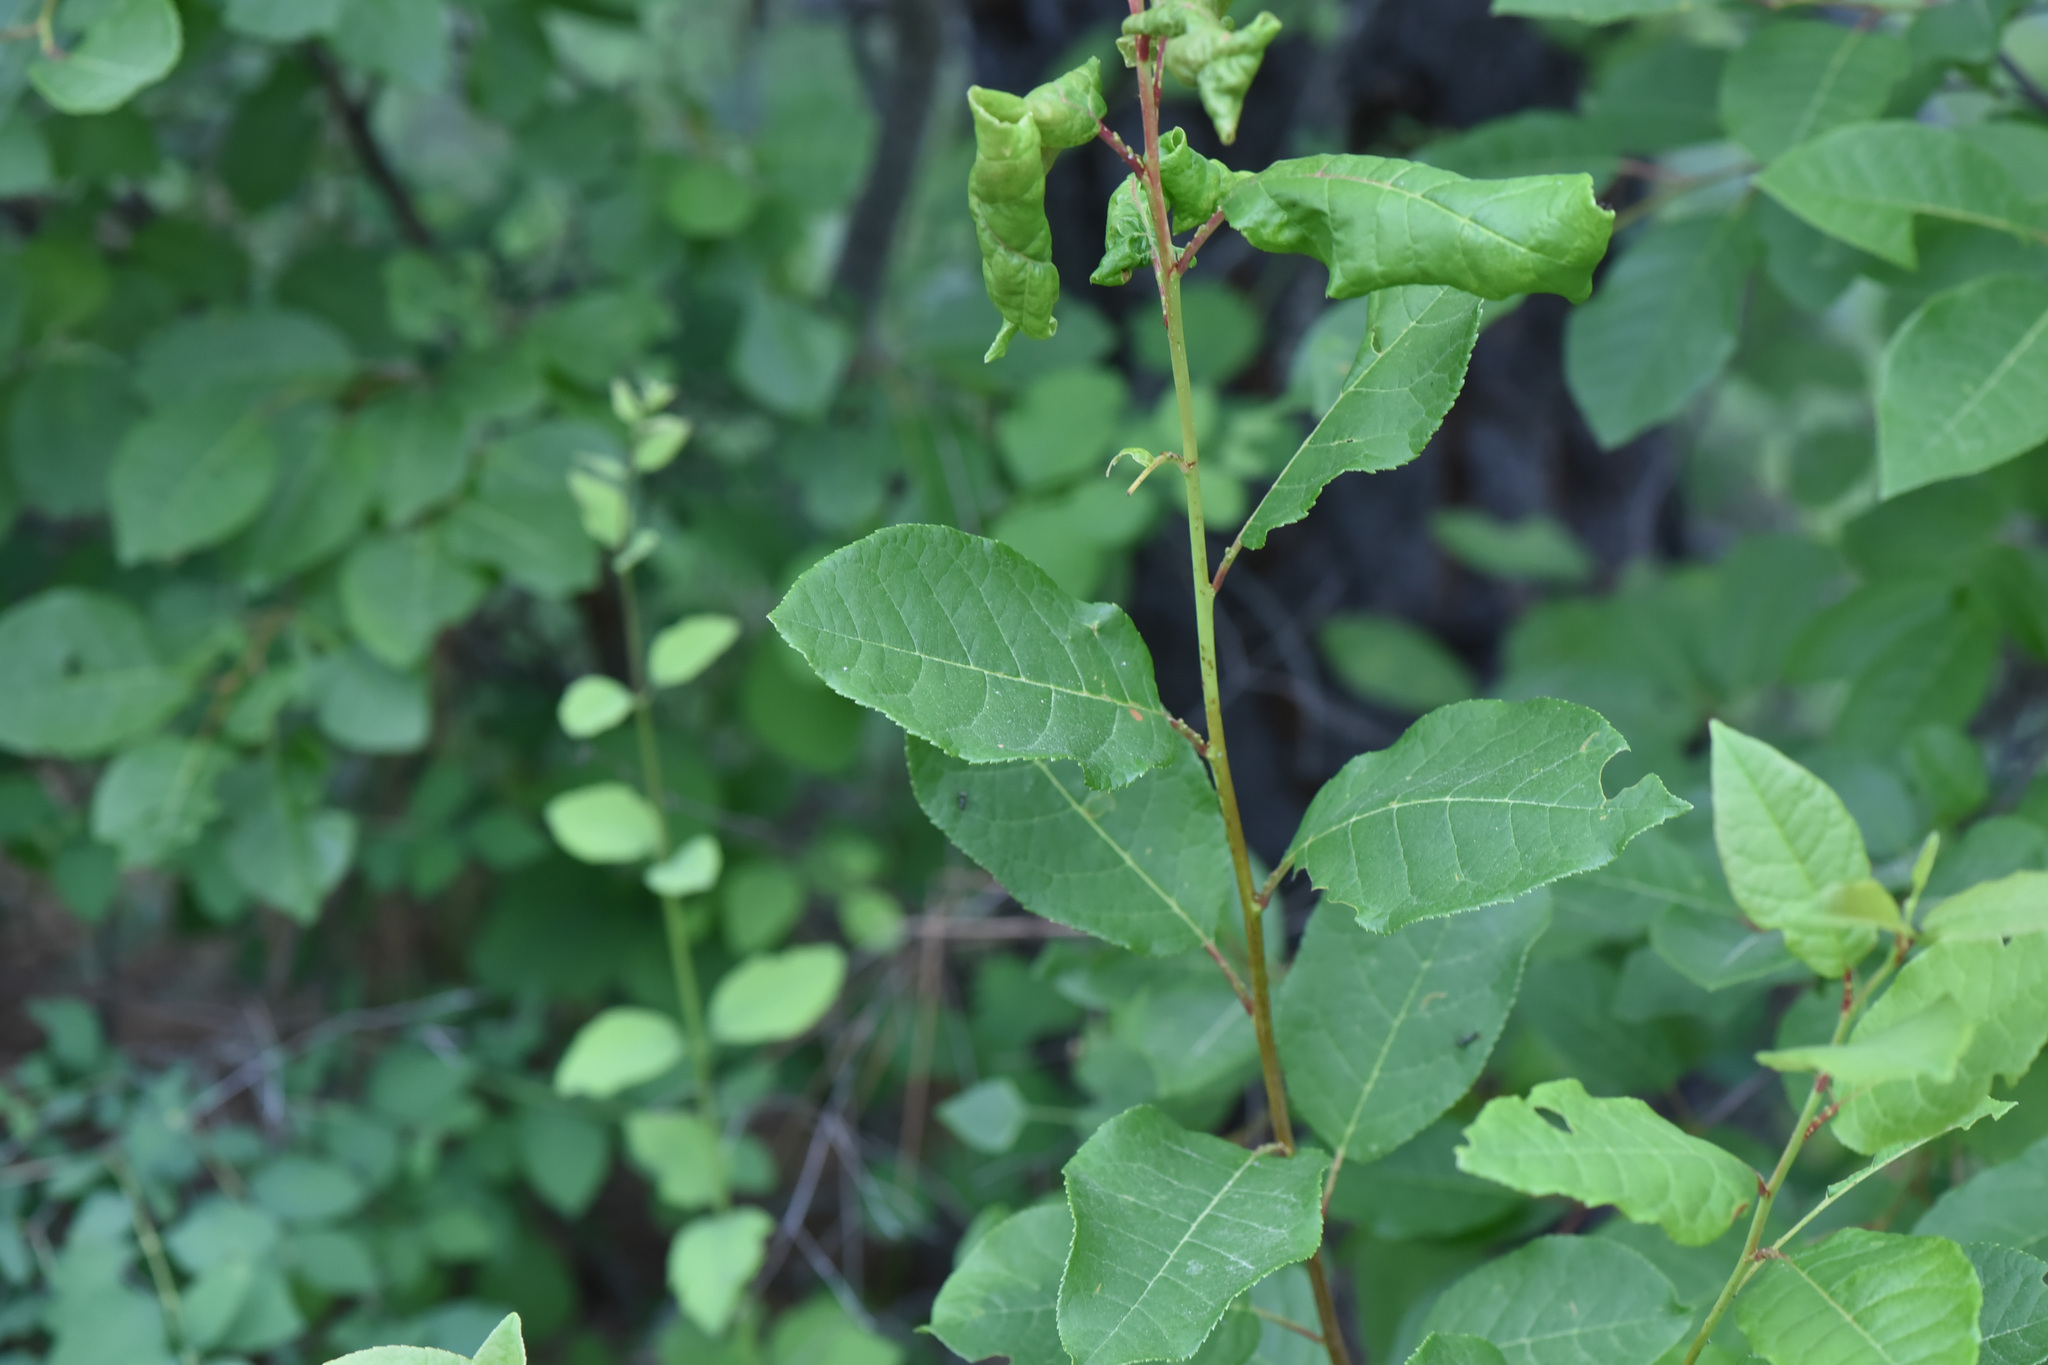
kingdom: Plantae
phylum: Tracheophyta
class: Magnoliopsida
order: Rosales
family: Rosaceae
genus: Prunus
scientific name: Prunus virginiana
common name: Chokecherry
